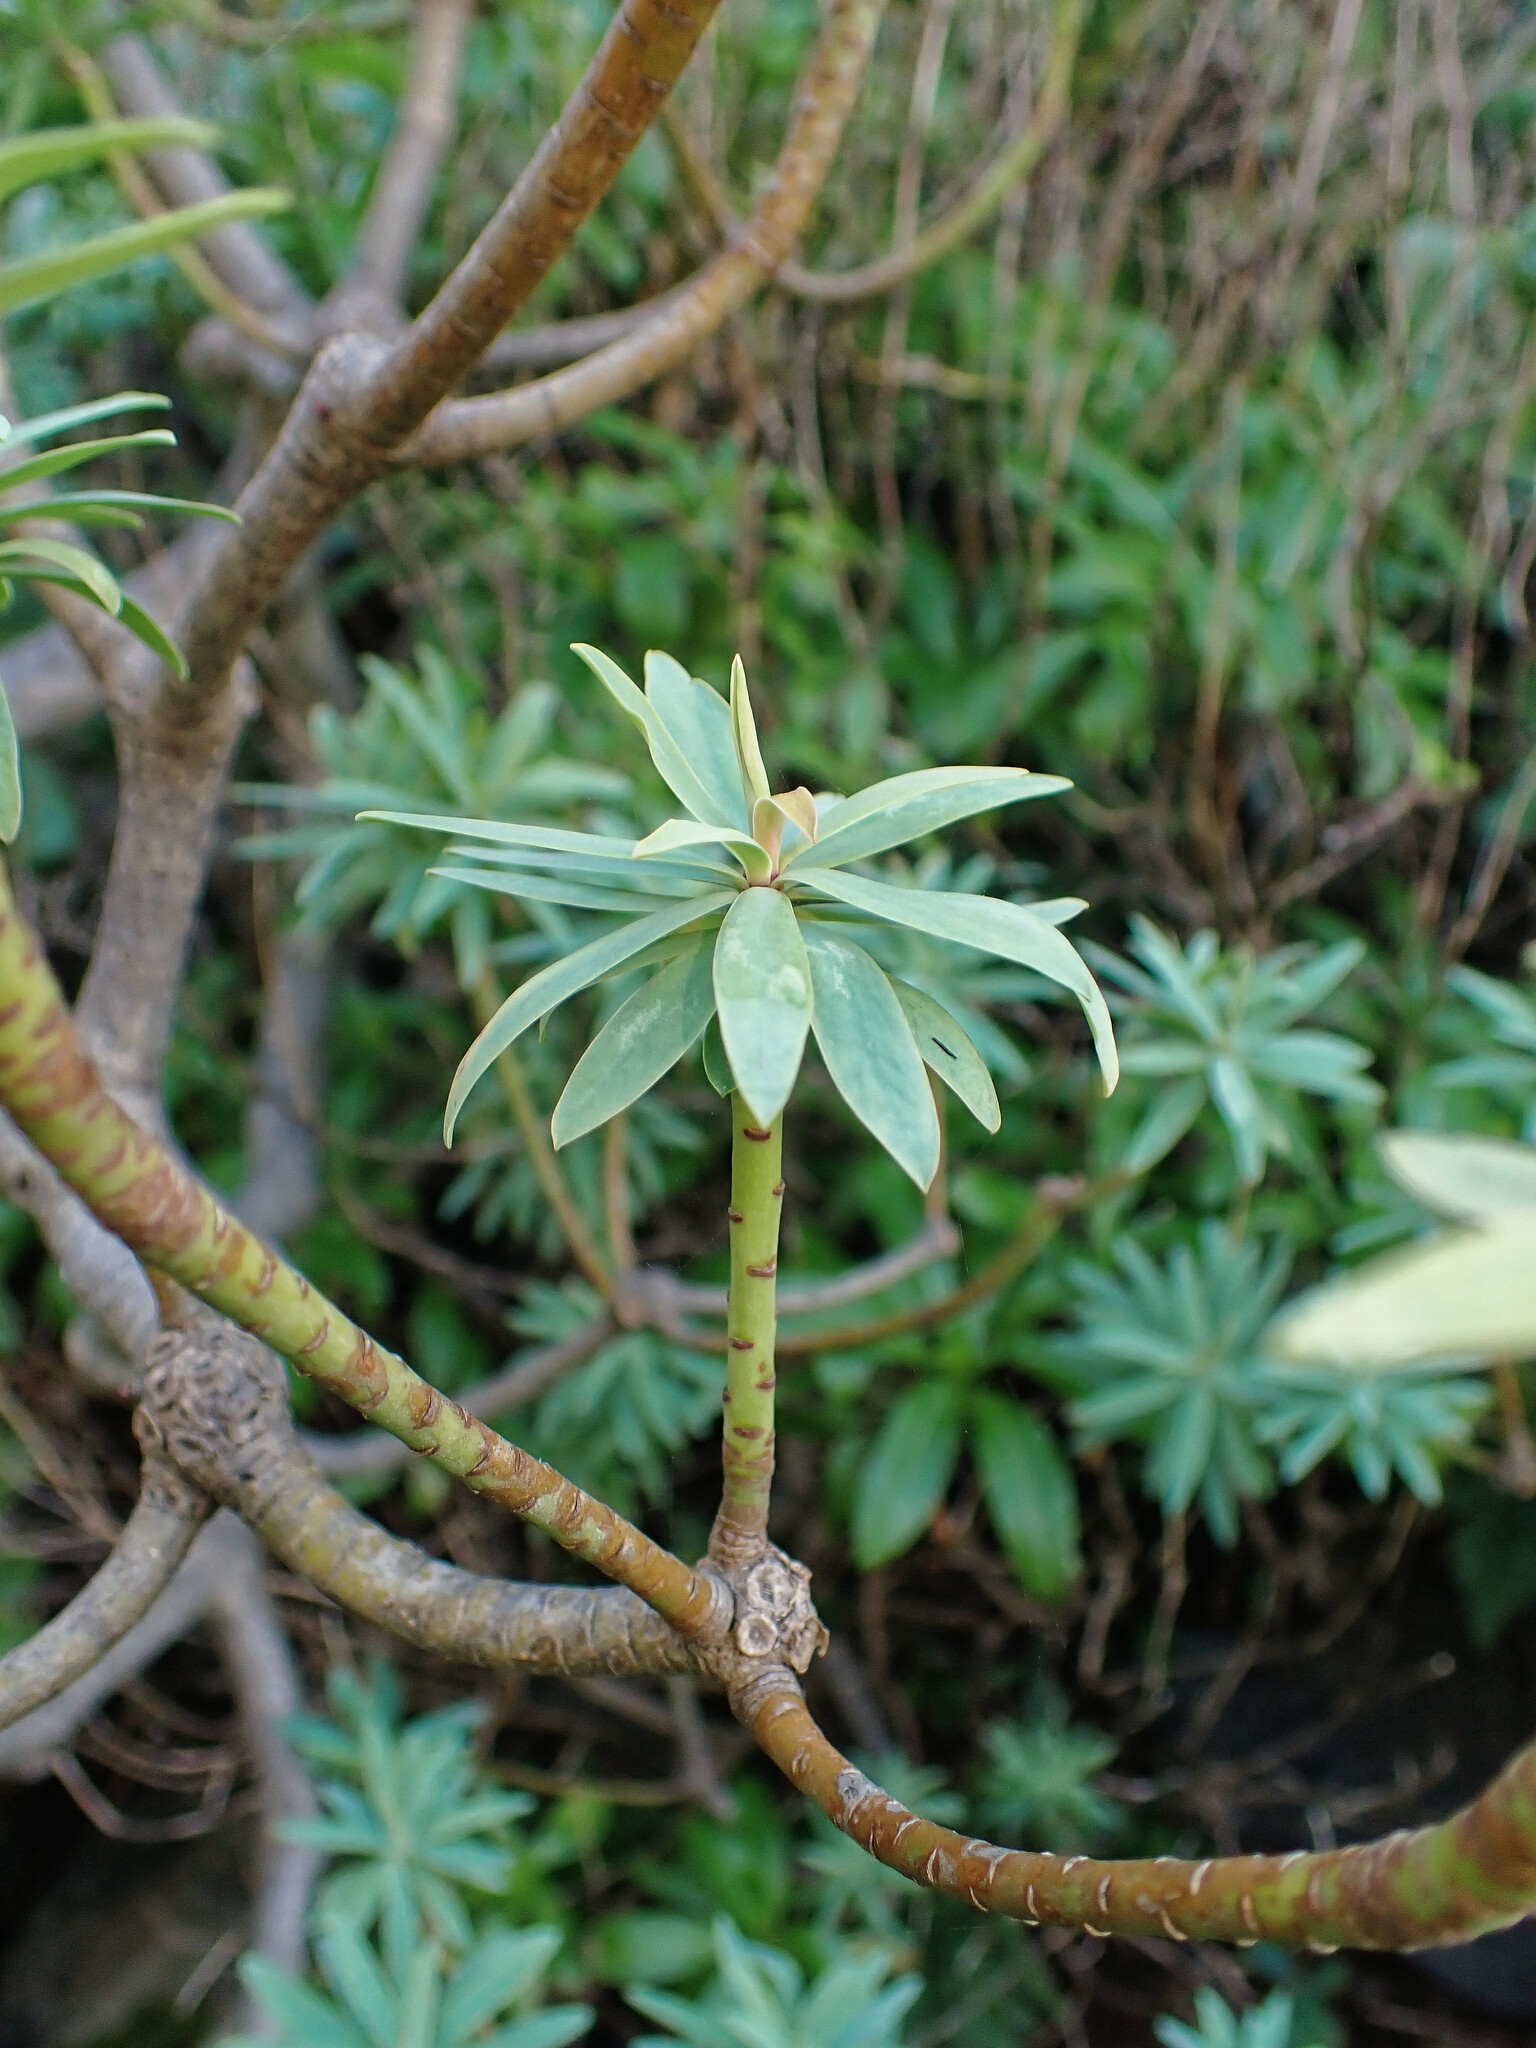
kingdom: Plantae
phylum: Tracheophyta
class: Magnoliopsida
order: Malpighiales
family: Euphorbiaceae
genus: Euphorbia
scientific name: Euphorbia piscatoria
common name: Fish-stunning spurge
